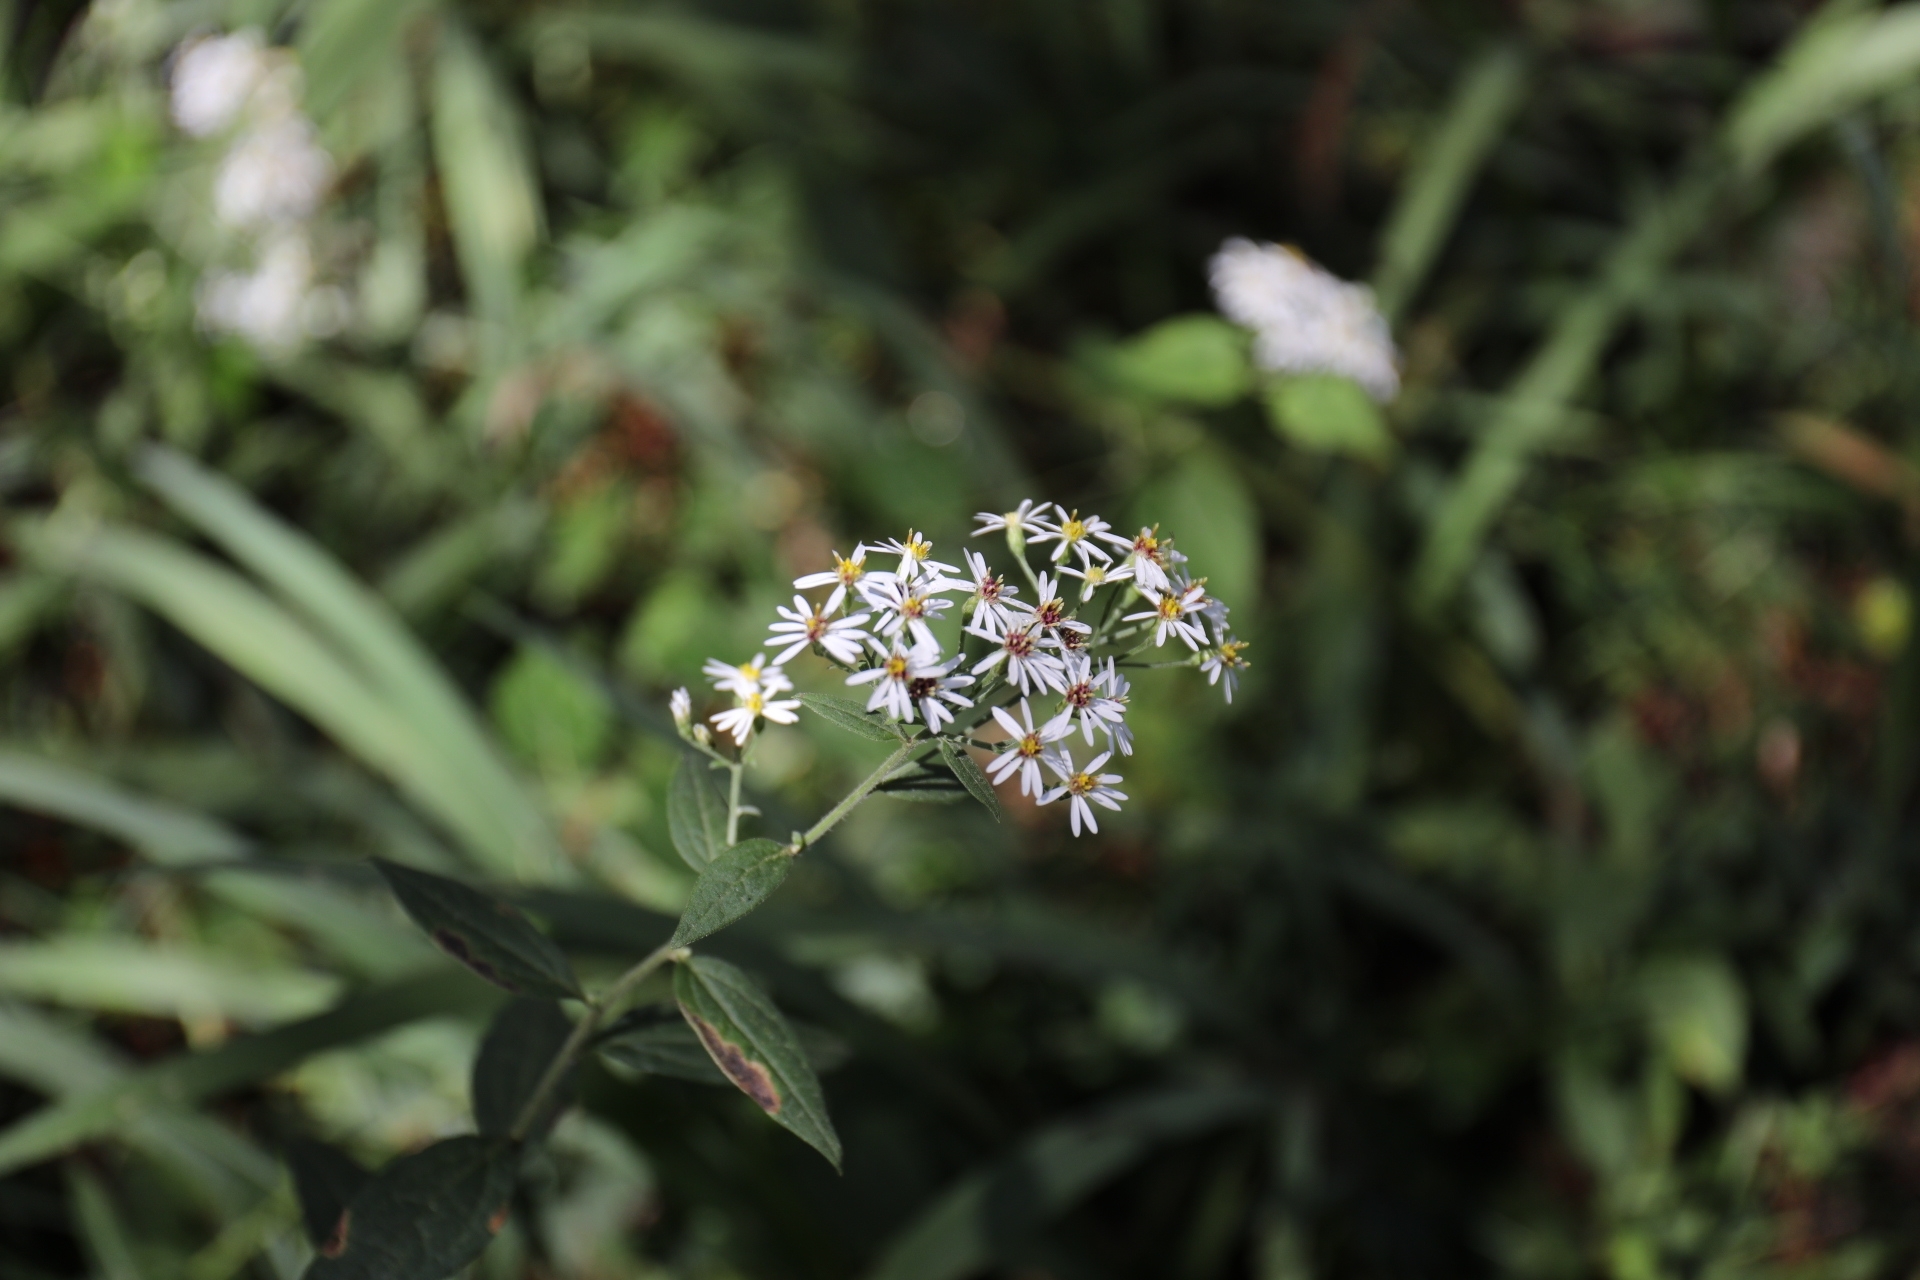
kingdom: Plantae
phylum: Tracheophyta
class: Magnoliopsida
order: Asterales
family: Asteraceae
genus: Aster
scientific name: Aster ageratoides
